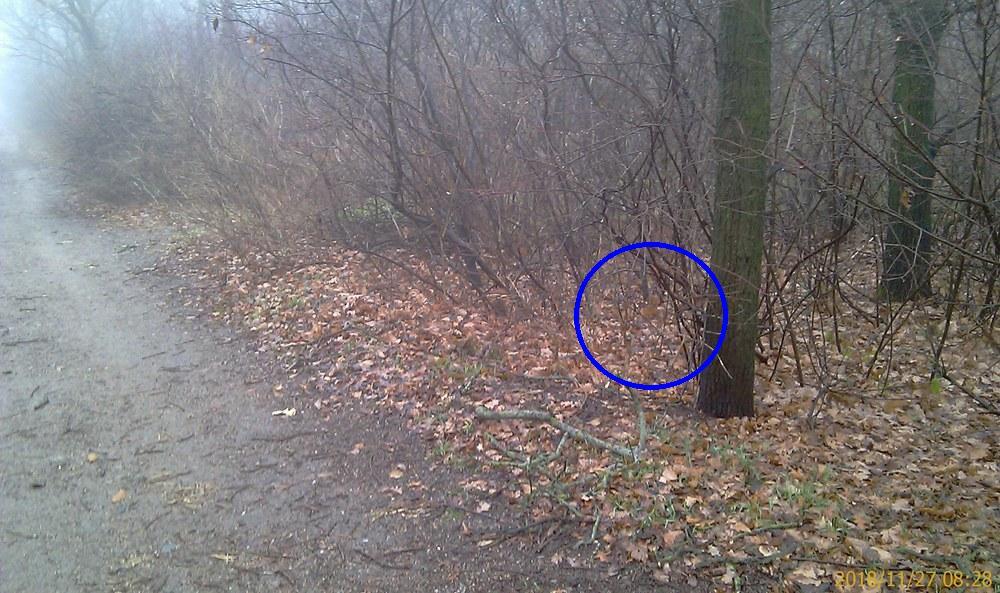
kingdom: Animalia
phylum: Chordata
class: Mammalia
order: Rodentia
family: Sciuridae
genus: Sciurus
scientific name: Sciurus vulgaris
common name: Eurasian red squirrel
